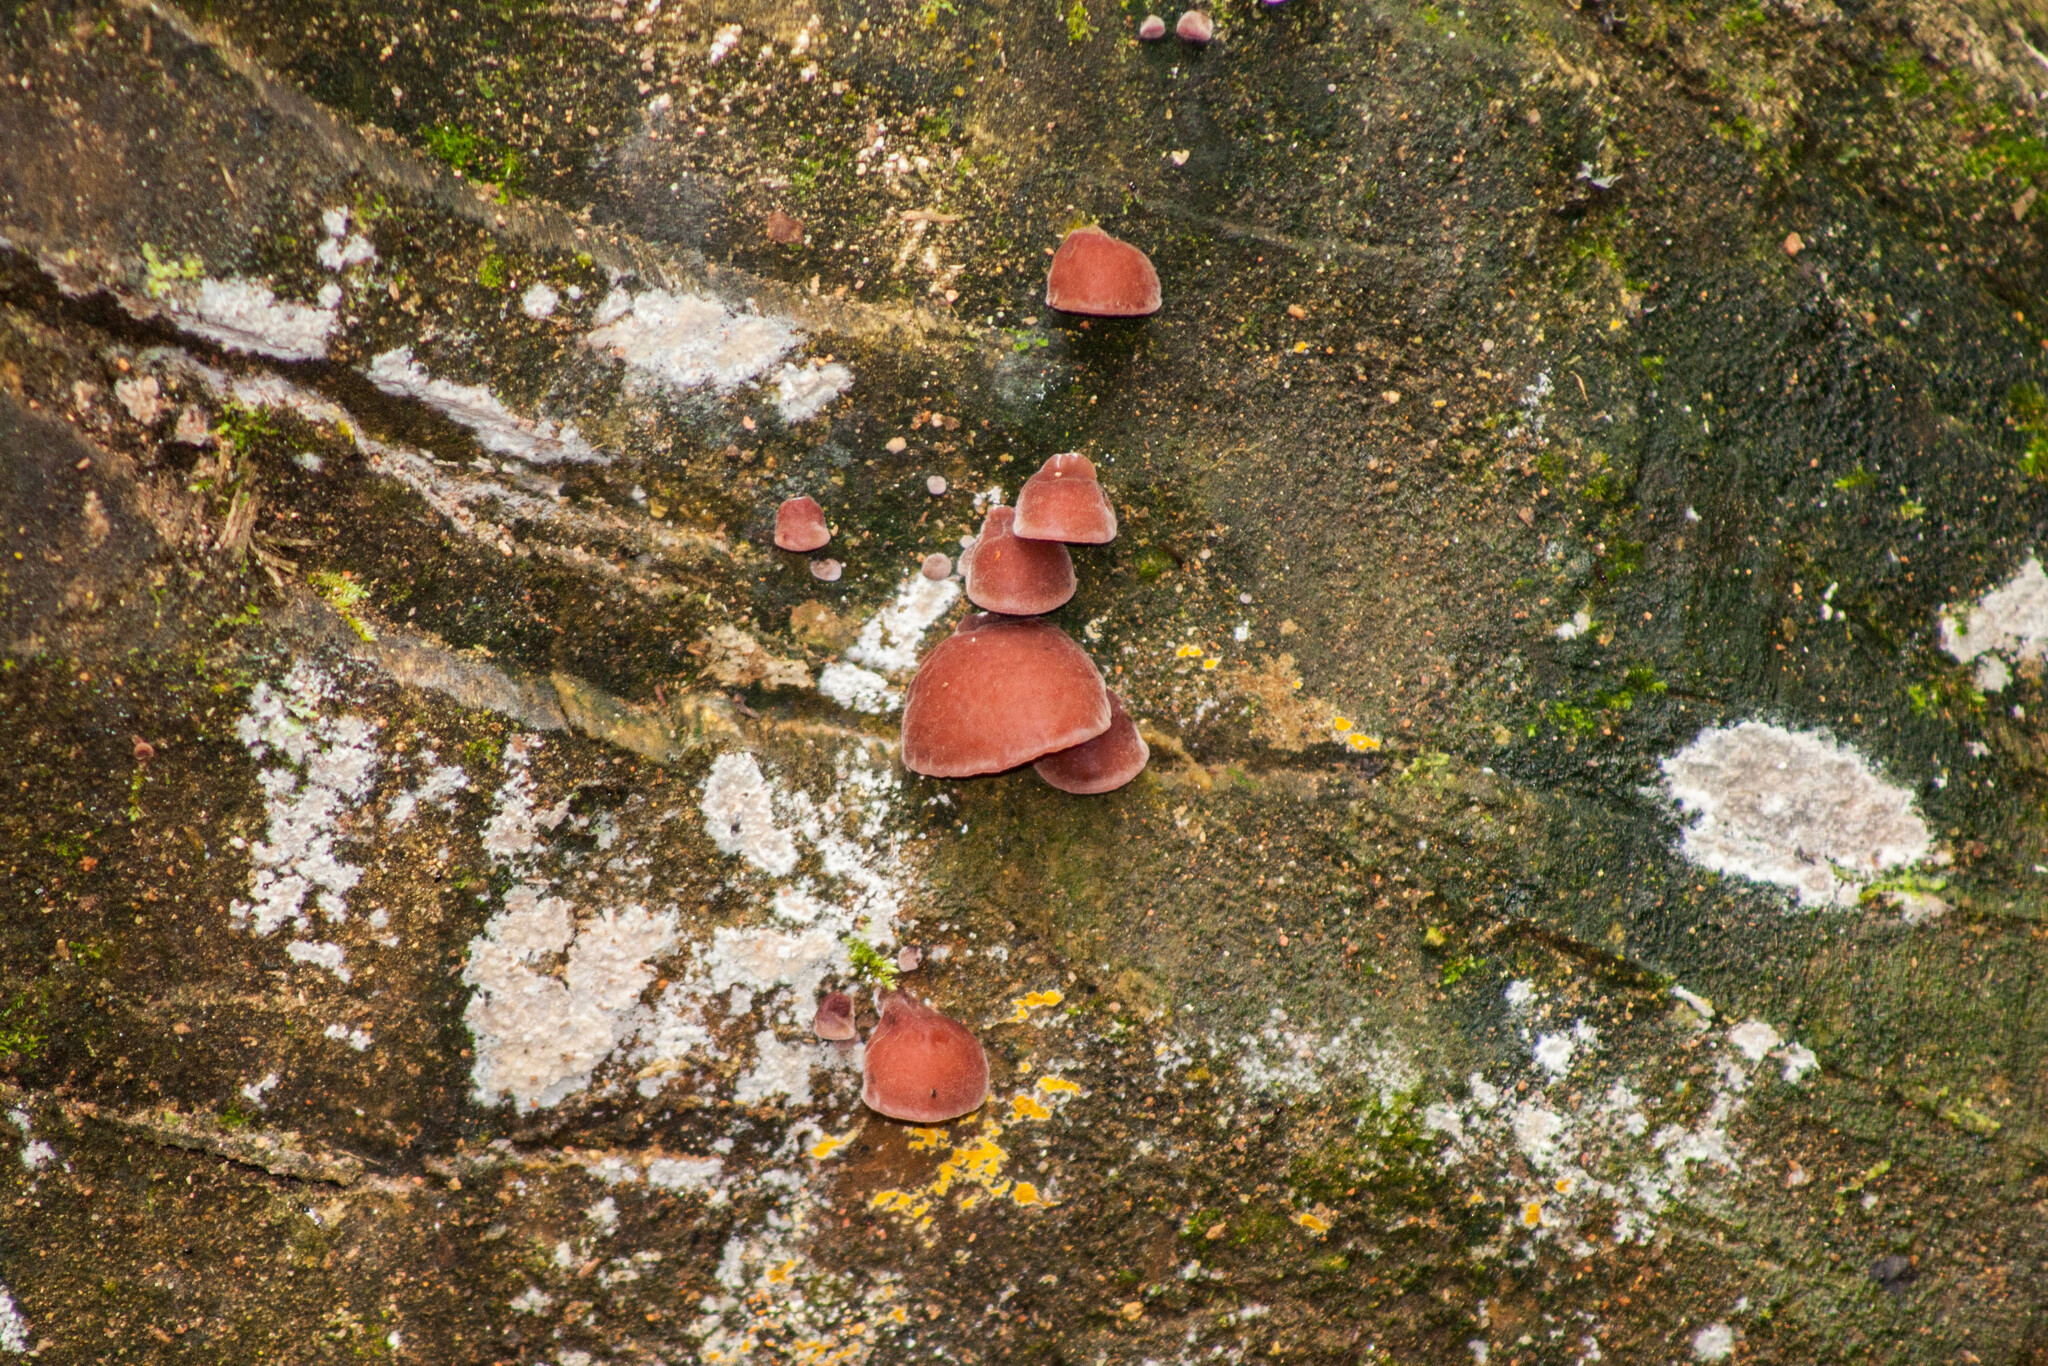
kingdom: Fungi
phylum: Basidiomycota
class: Agaricomycetes
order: Auriculariales
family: Auriculariaceae
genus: Auricularia
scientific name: Auricularia cornea
